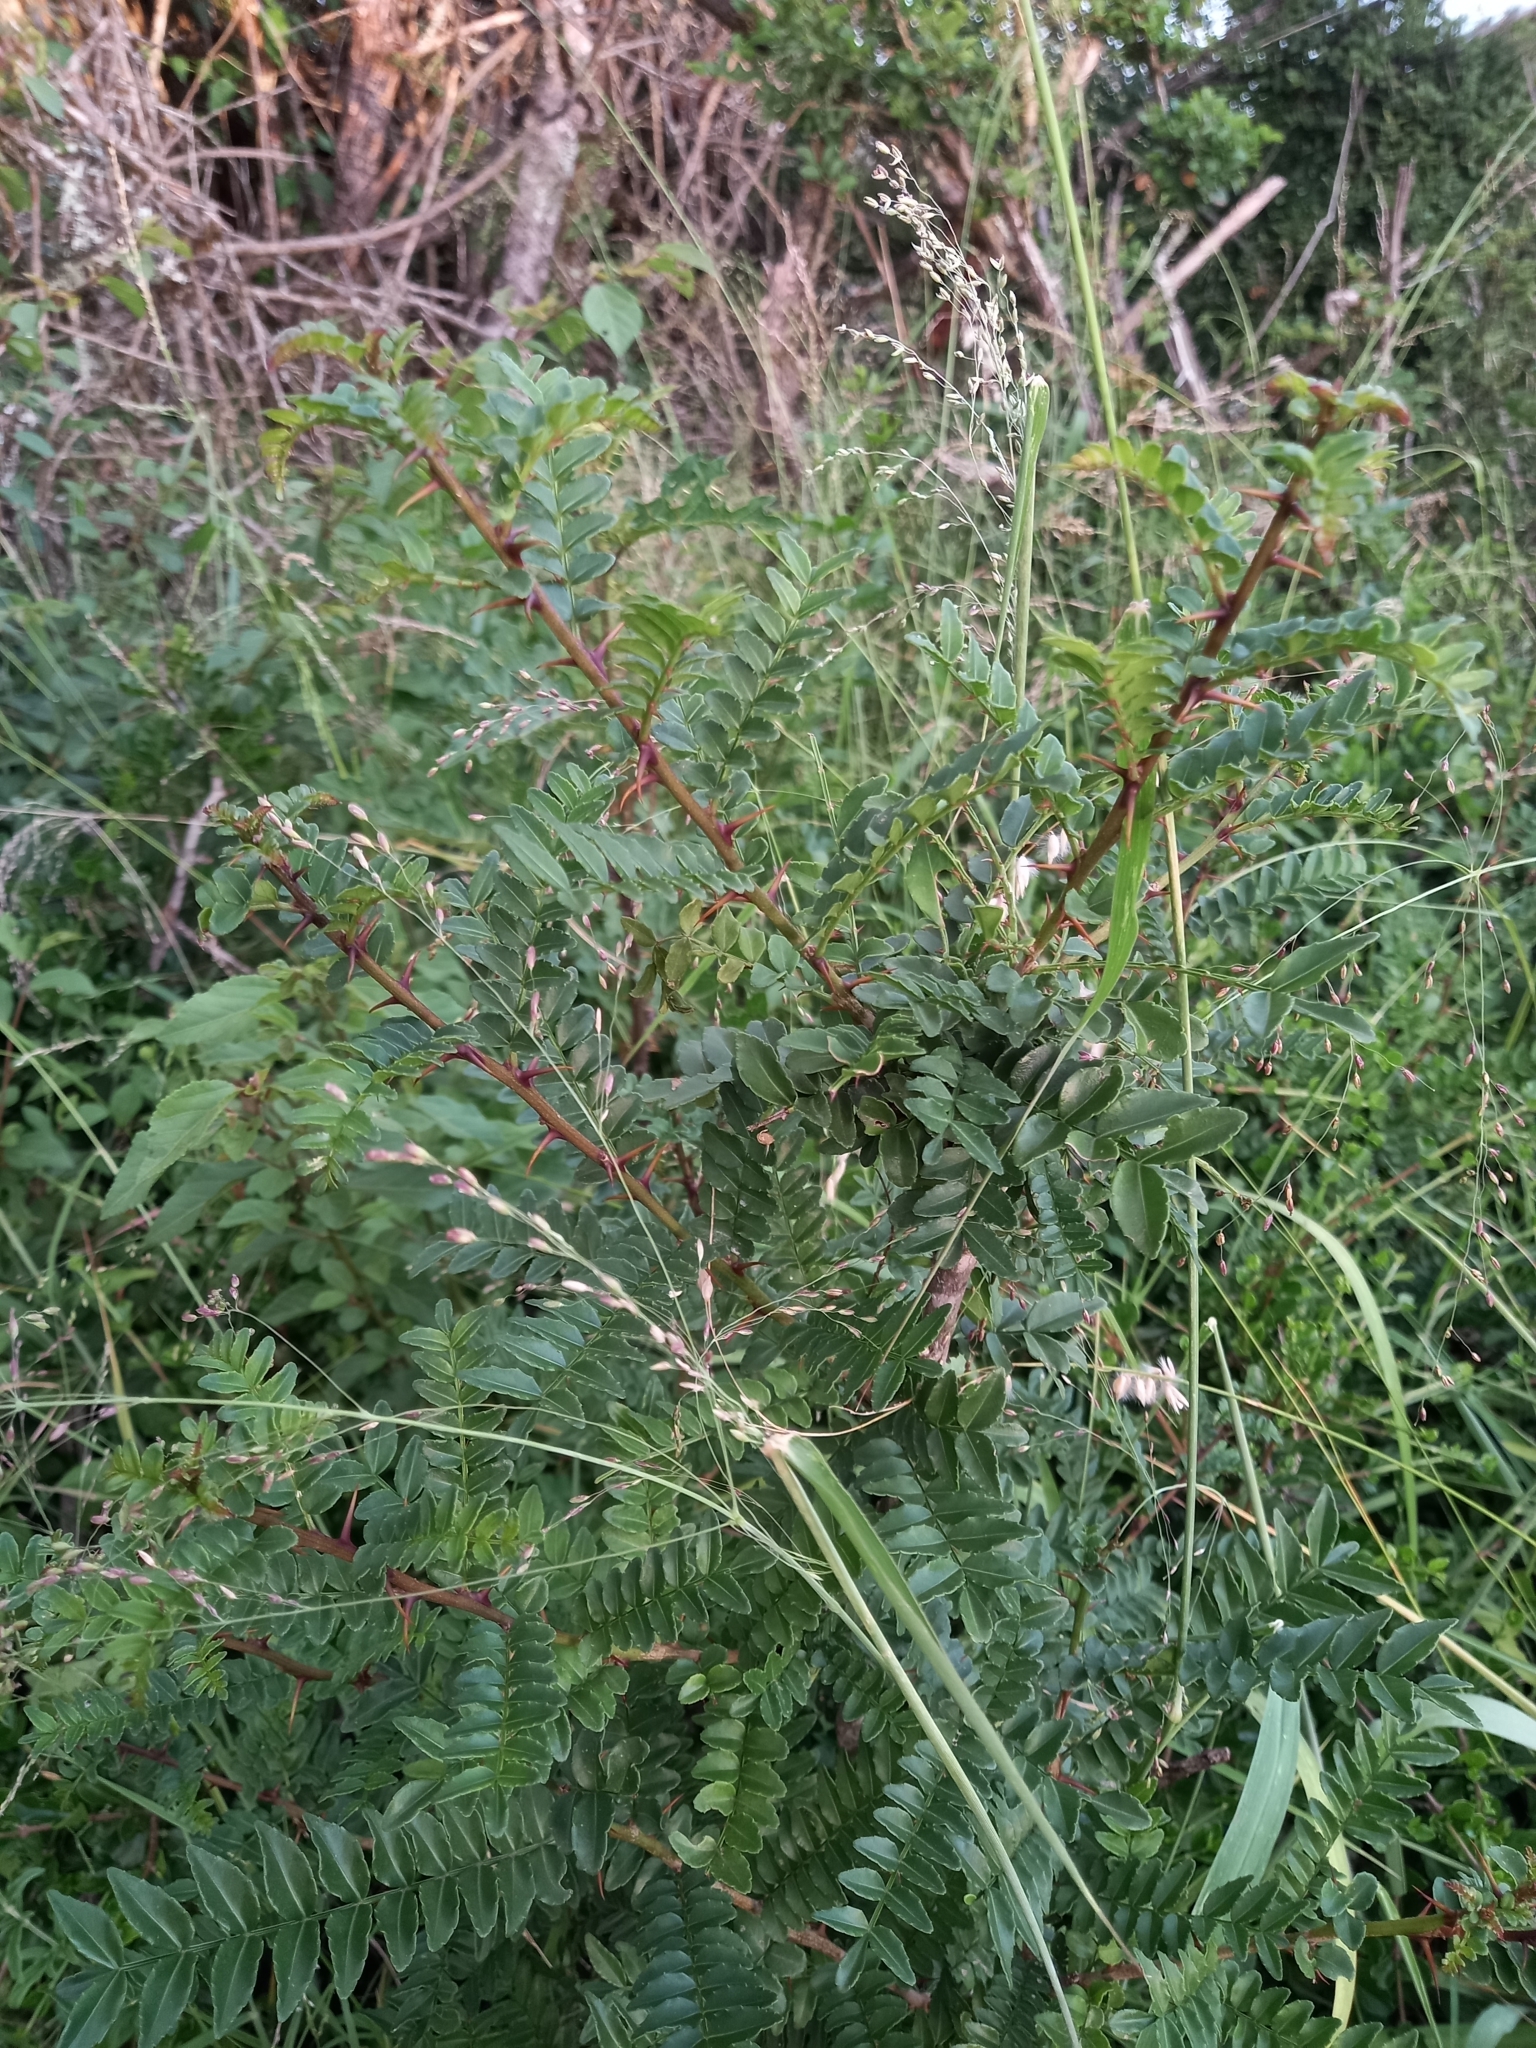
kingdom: Plantae
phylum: Tracheophyta
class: Magnoliopsida
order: Sapindales
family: Rutaceae
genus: Zanthoxylum
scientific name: Zanthoxylum capense
